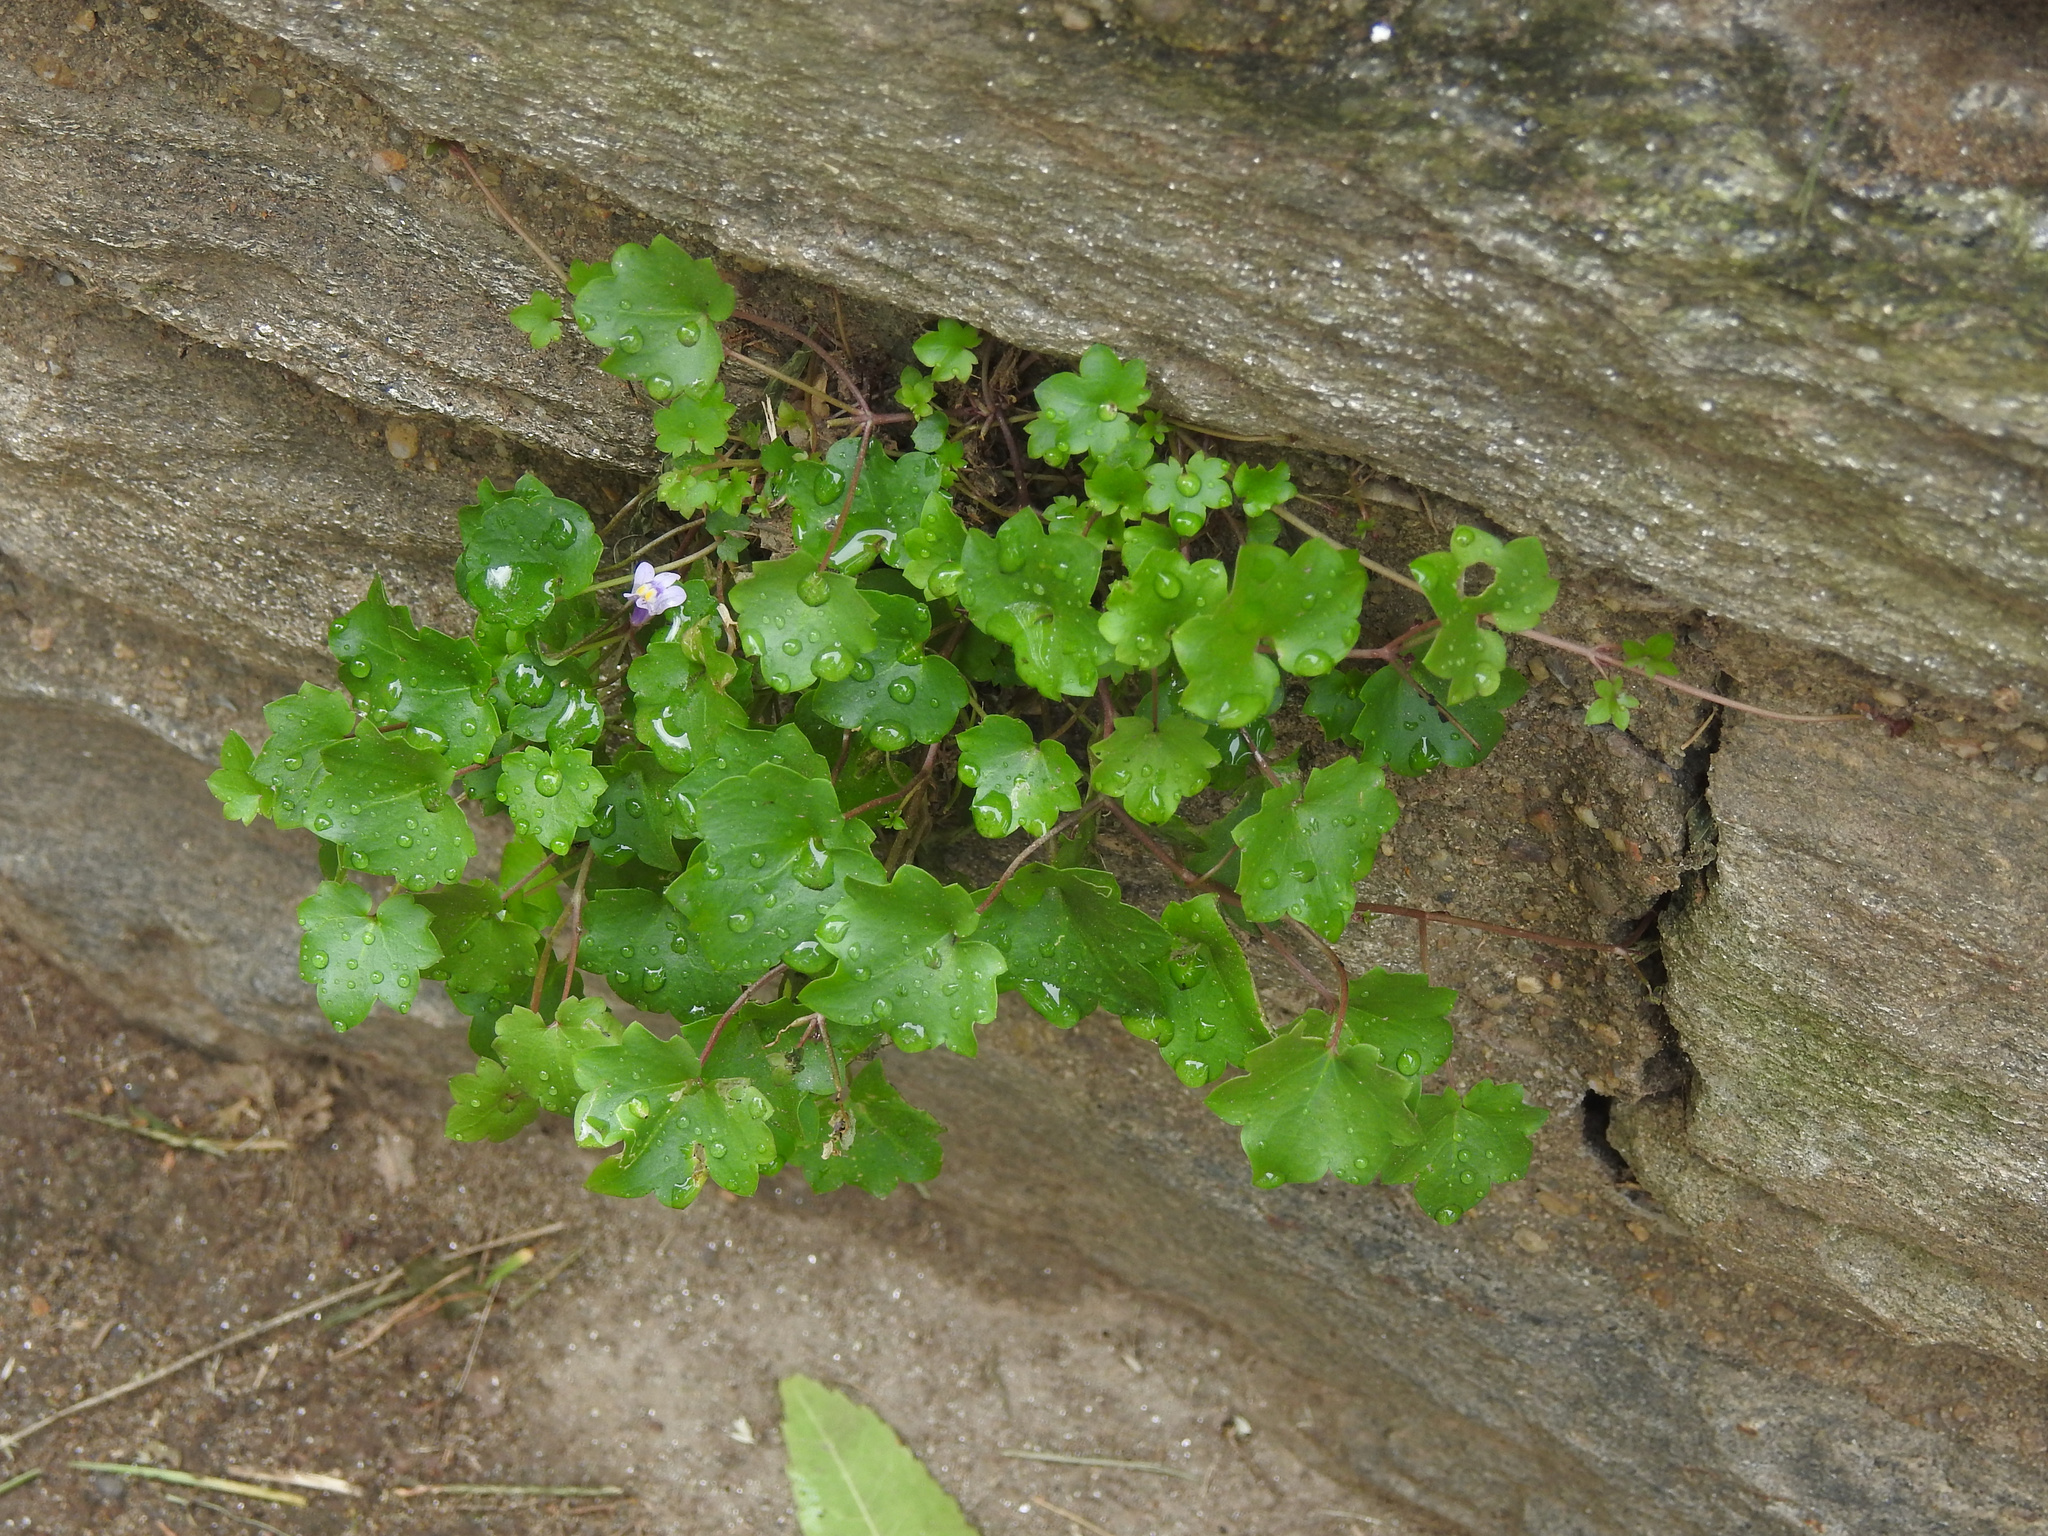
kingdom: Plantae
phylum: Tracheophyta
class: Magnoliopsida
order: Lamiales
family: Plantaginaceae
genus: Cymbalaria
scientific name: Cymbalaria muralis
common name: Ivy-leaved toadflax
